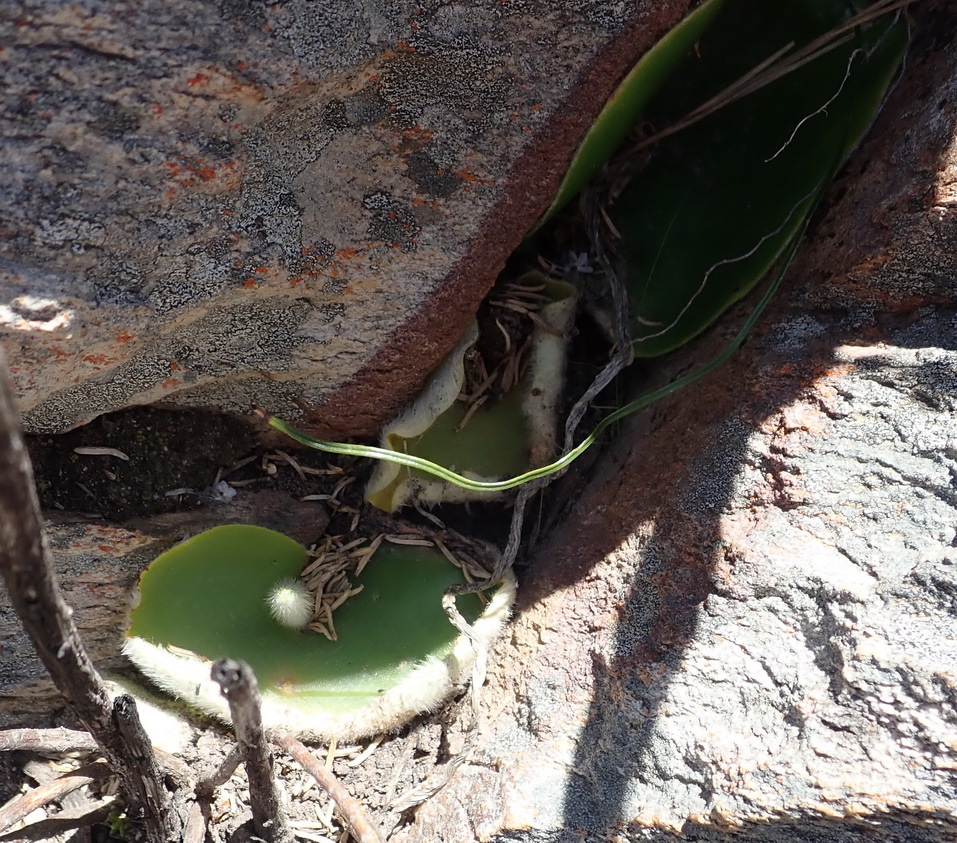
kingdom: Plantae
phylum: Tracheophyta
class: Liliopsida
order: Asparagales
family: Orchidaceae
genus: Holothrix
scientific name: Holothrix pilosa
